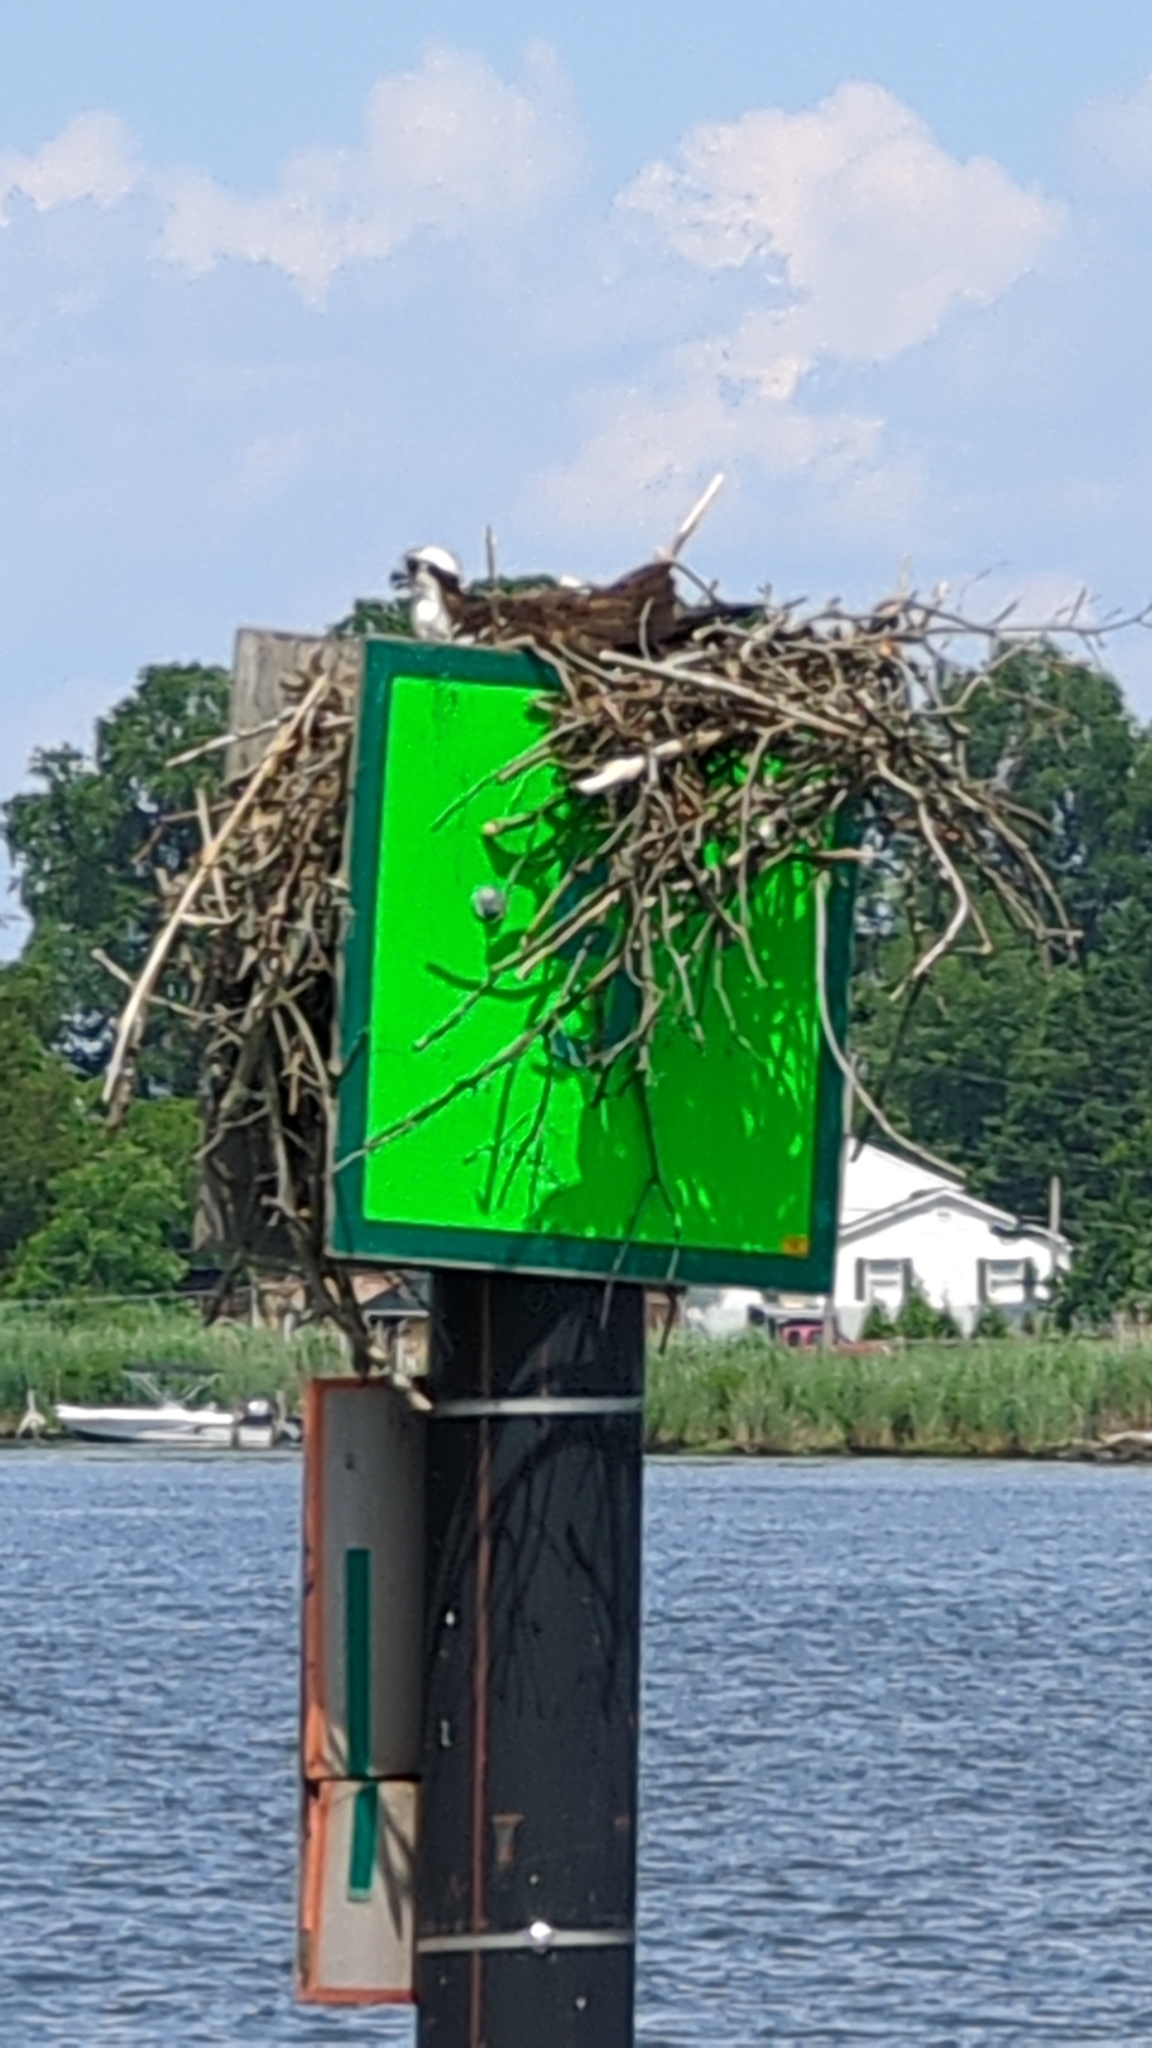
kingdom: Animalia
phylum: Chordata
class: Aves
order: Accipitriformes
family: Pandionidae
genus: Pandion
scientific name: Pandion haliaetus
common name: Osprey
